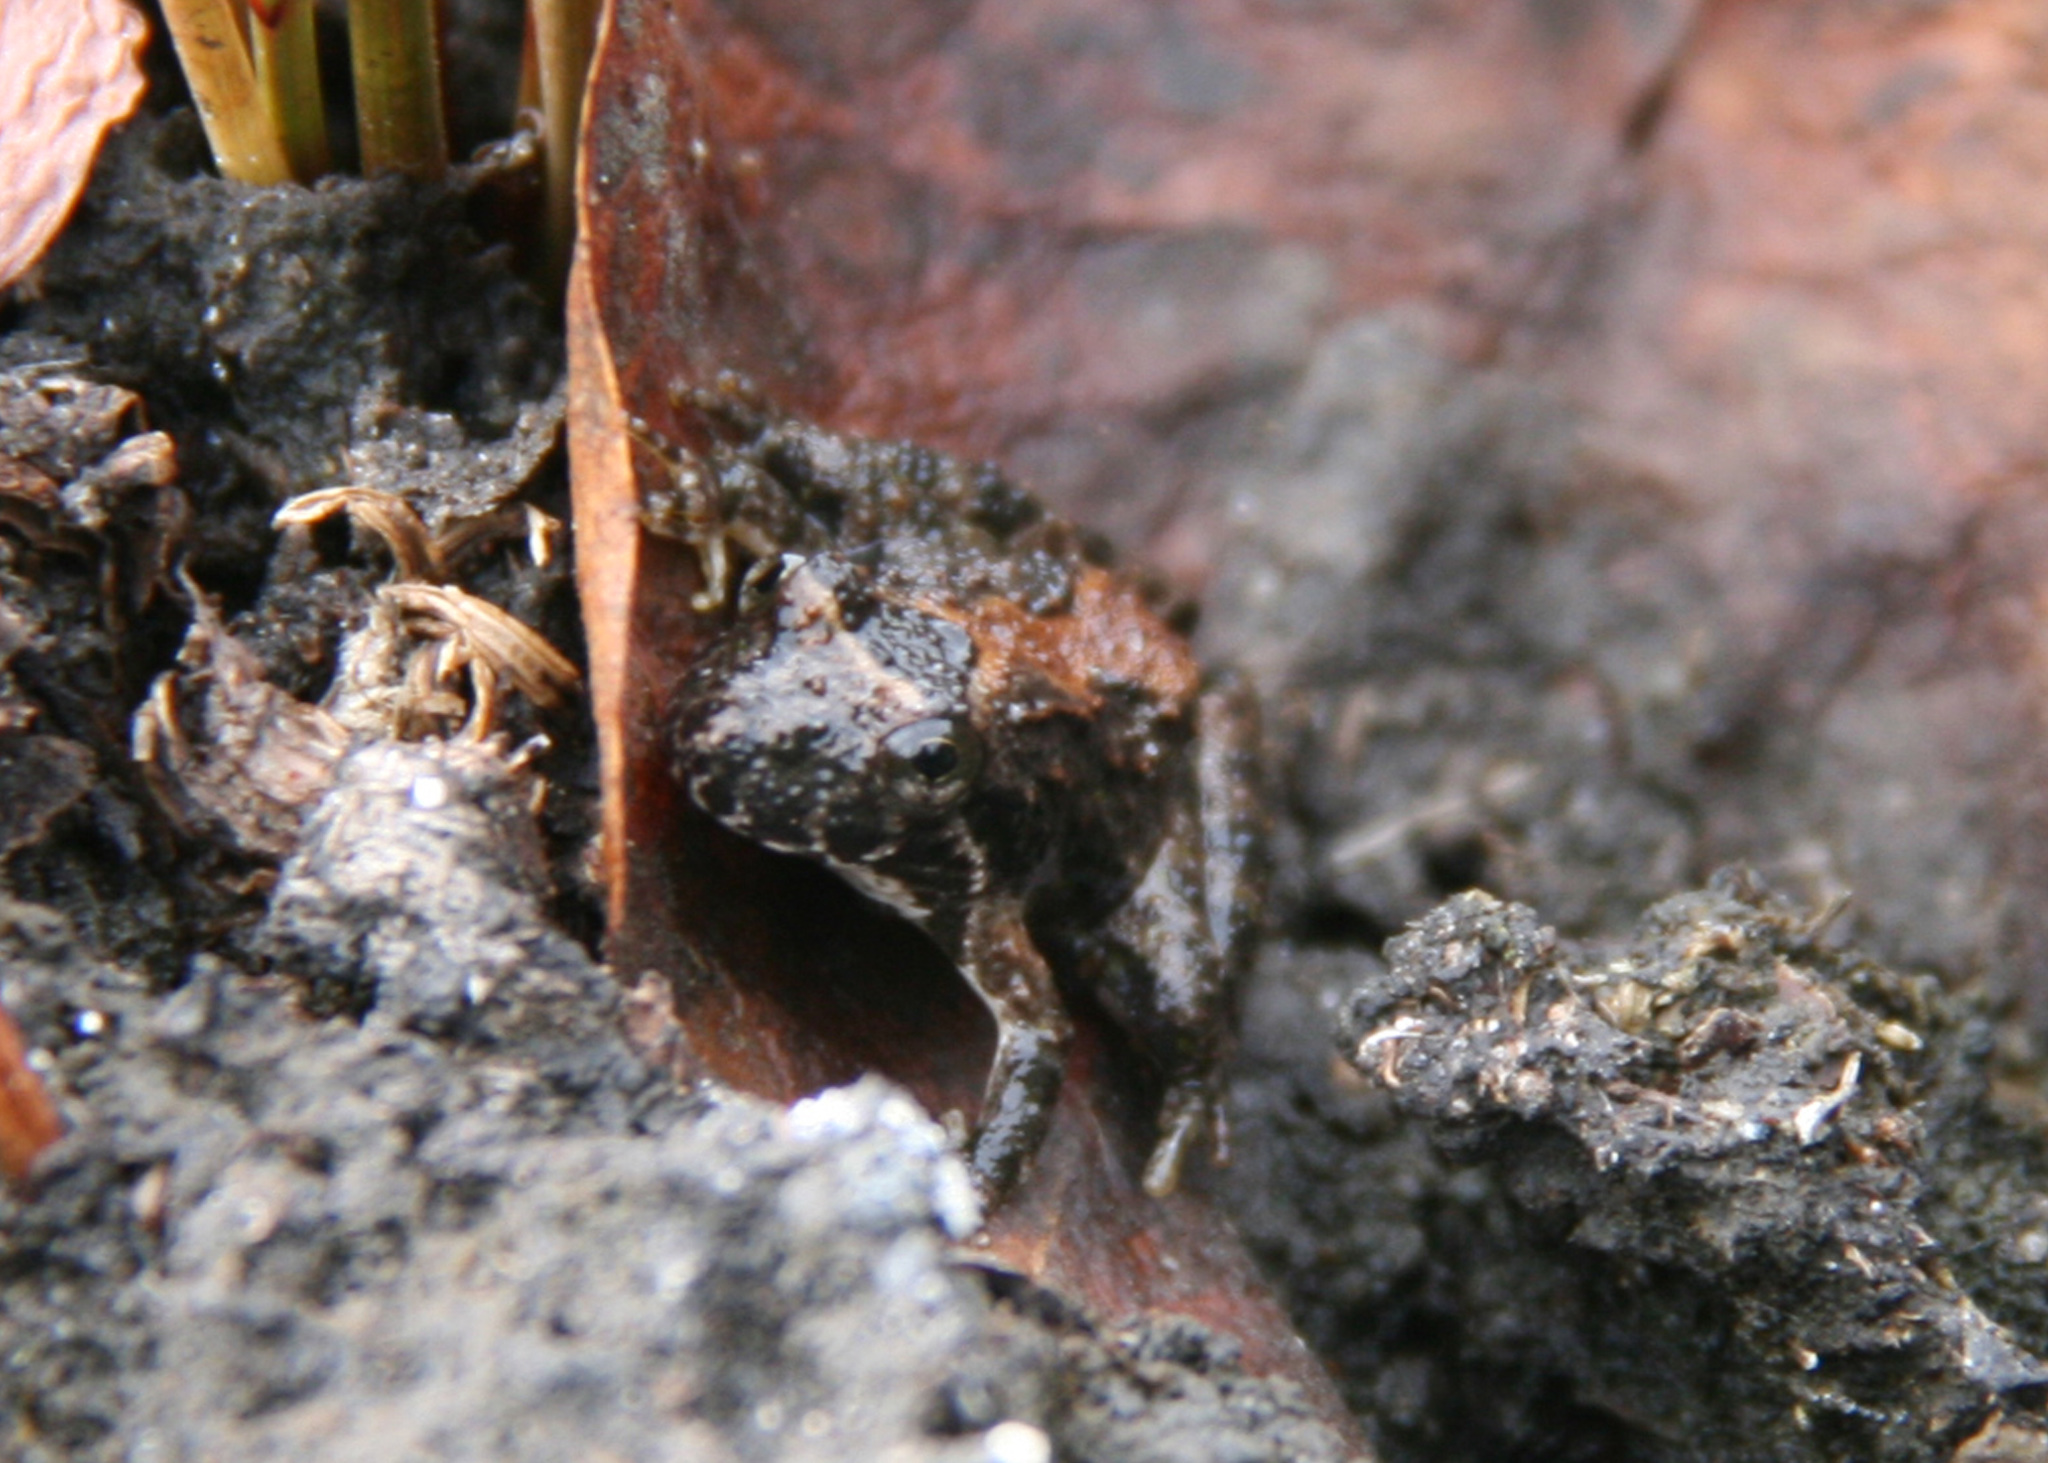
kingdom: Animalia
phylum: Chordata
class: Amphibia
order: Anura
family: Hylidae
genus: Acris
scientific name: Acris blanchardi
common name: Blanchard's cricket frog
